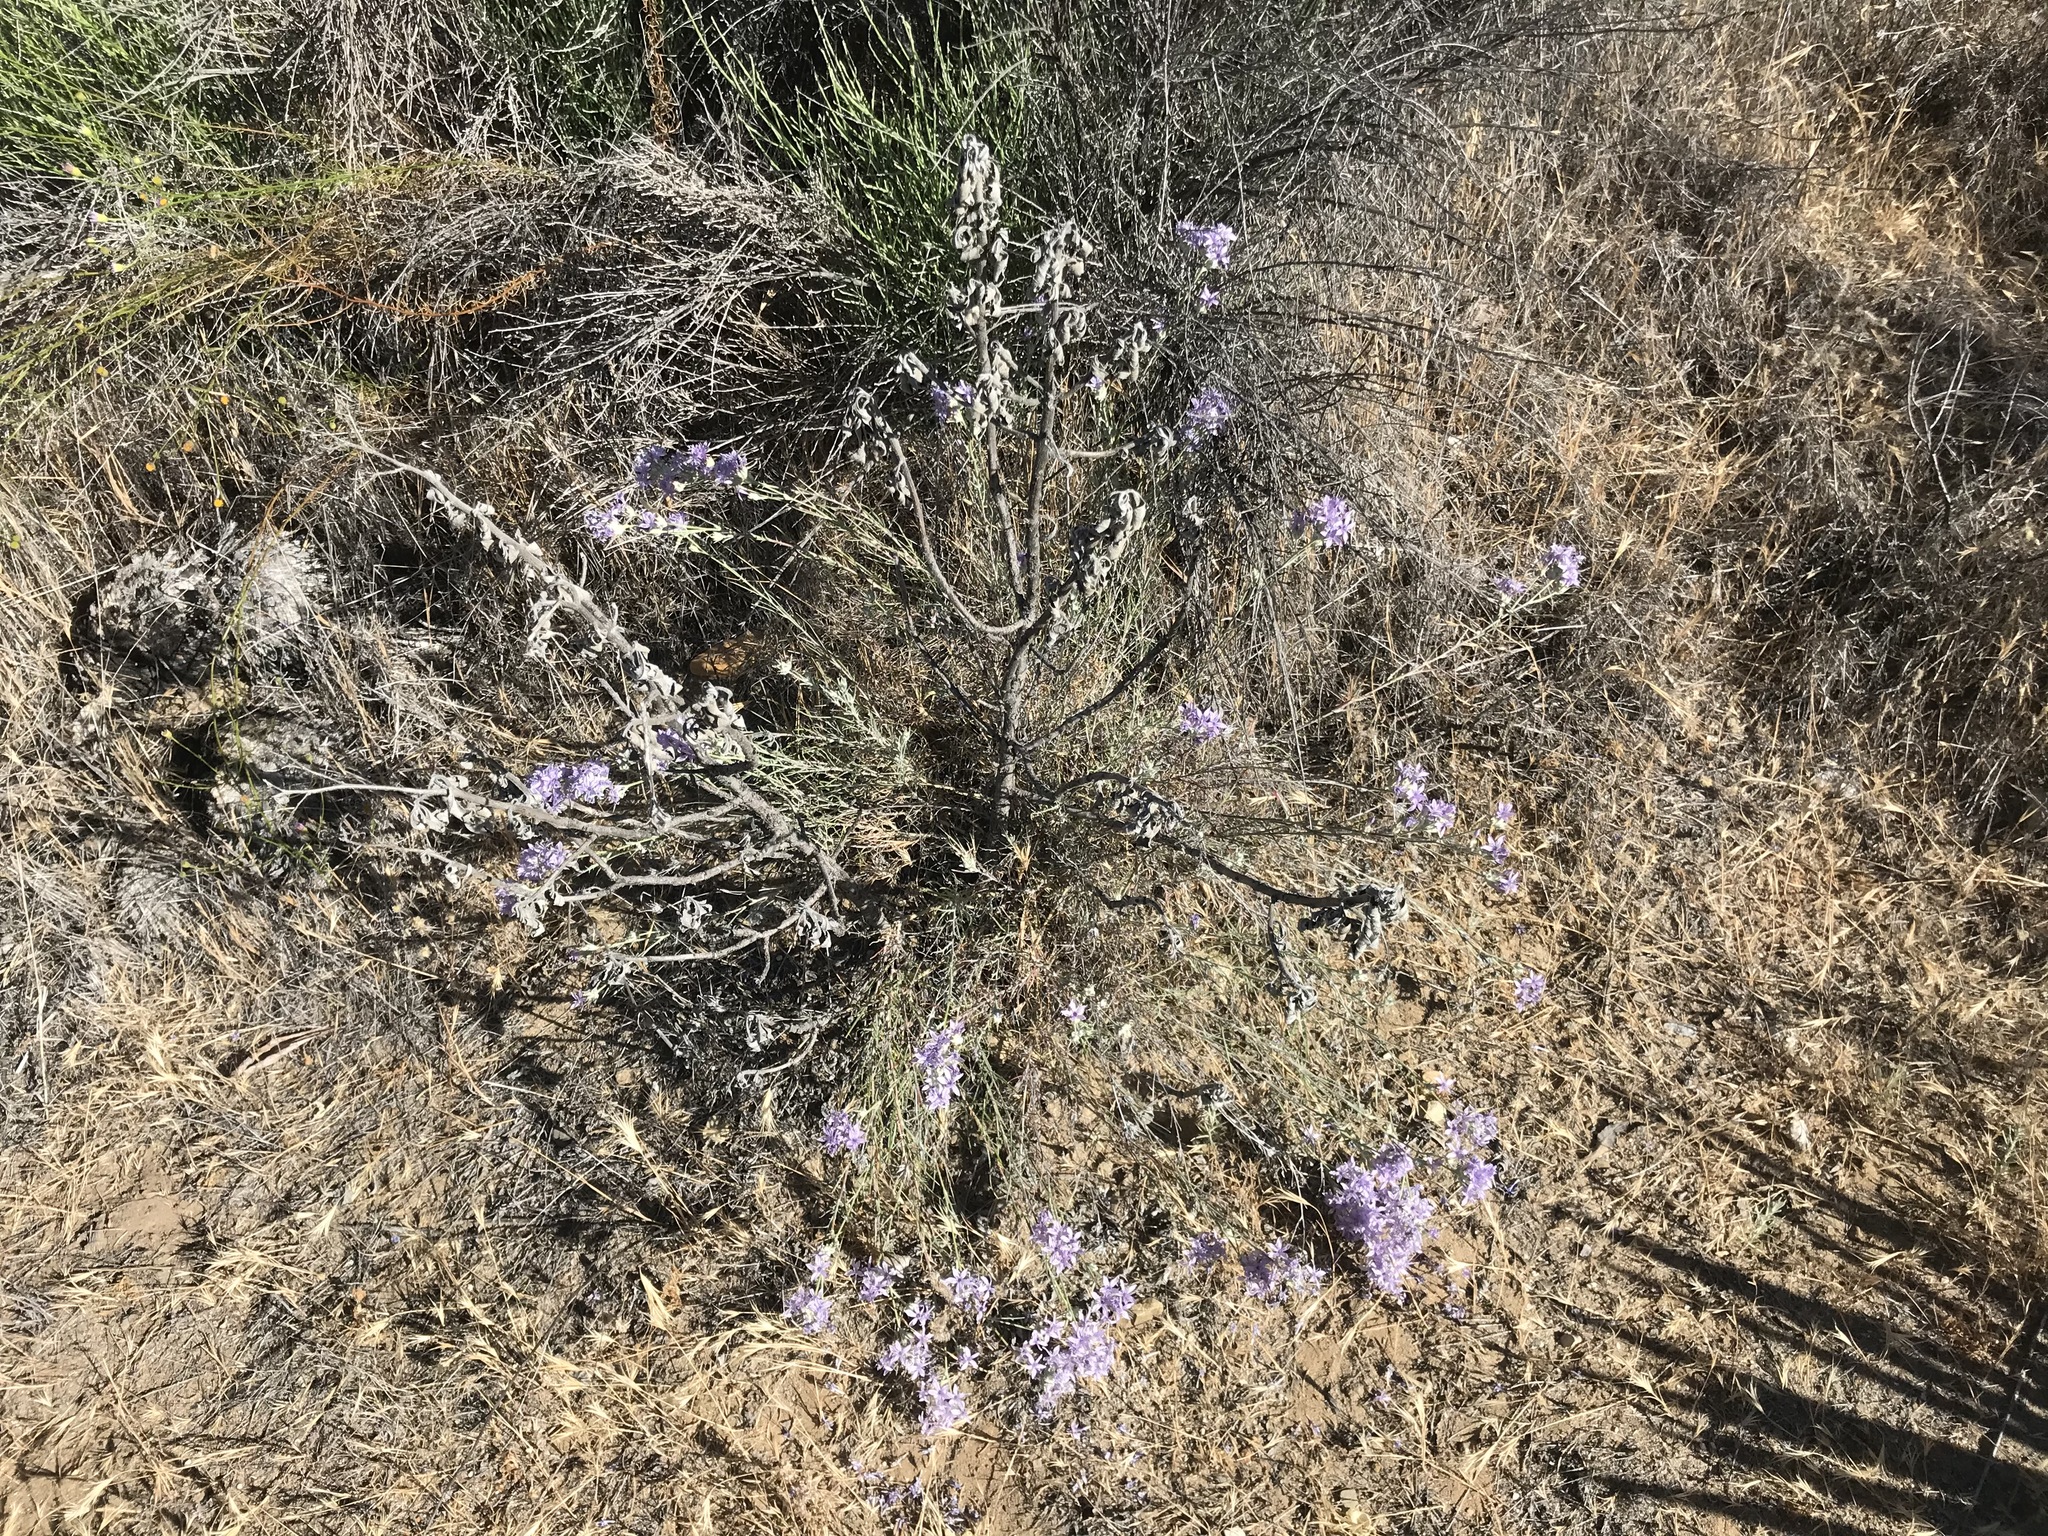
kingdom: Plantae
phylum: Tracheophyta
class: Magnoliopsida
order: Ericales
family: Polemoniaceae
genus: Eriastrum
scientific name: Eriastrum densifolium
